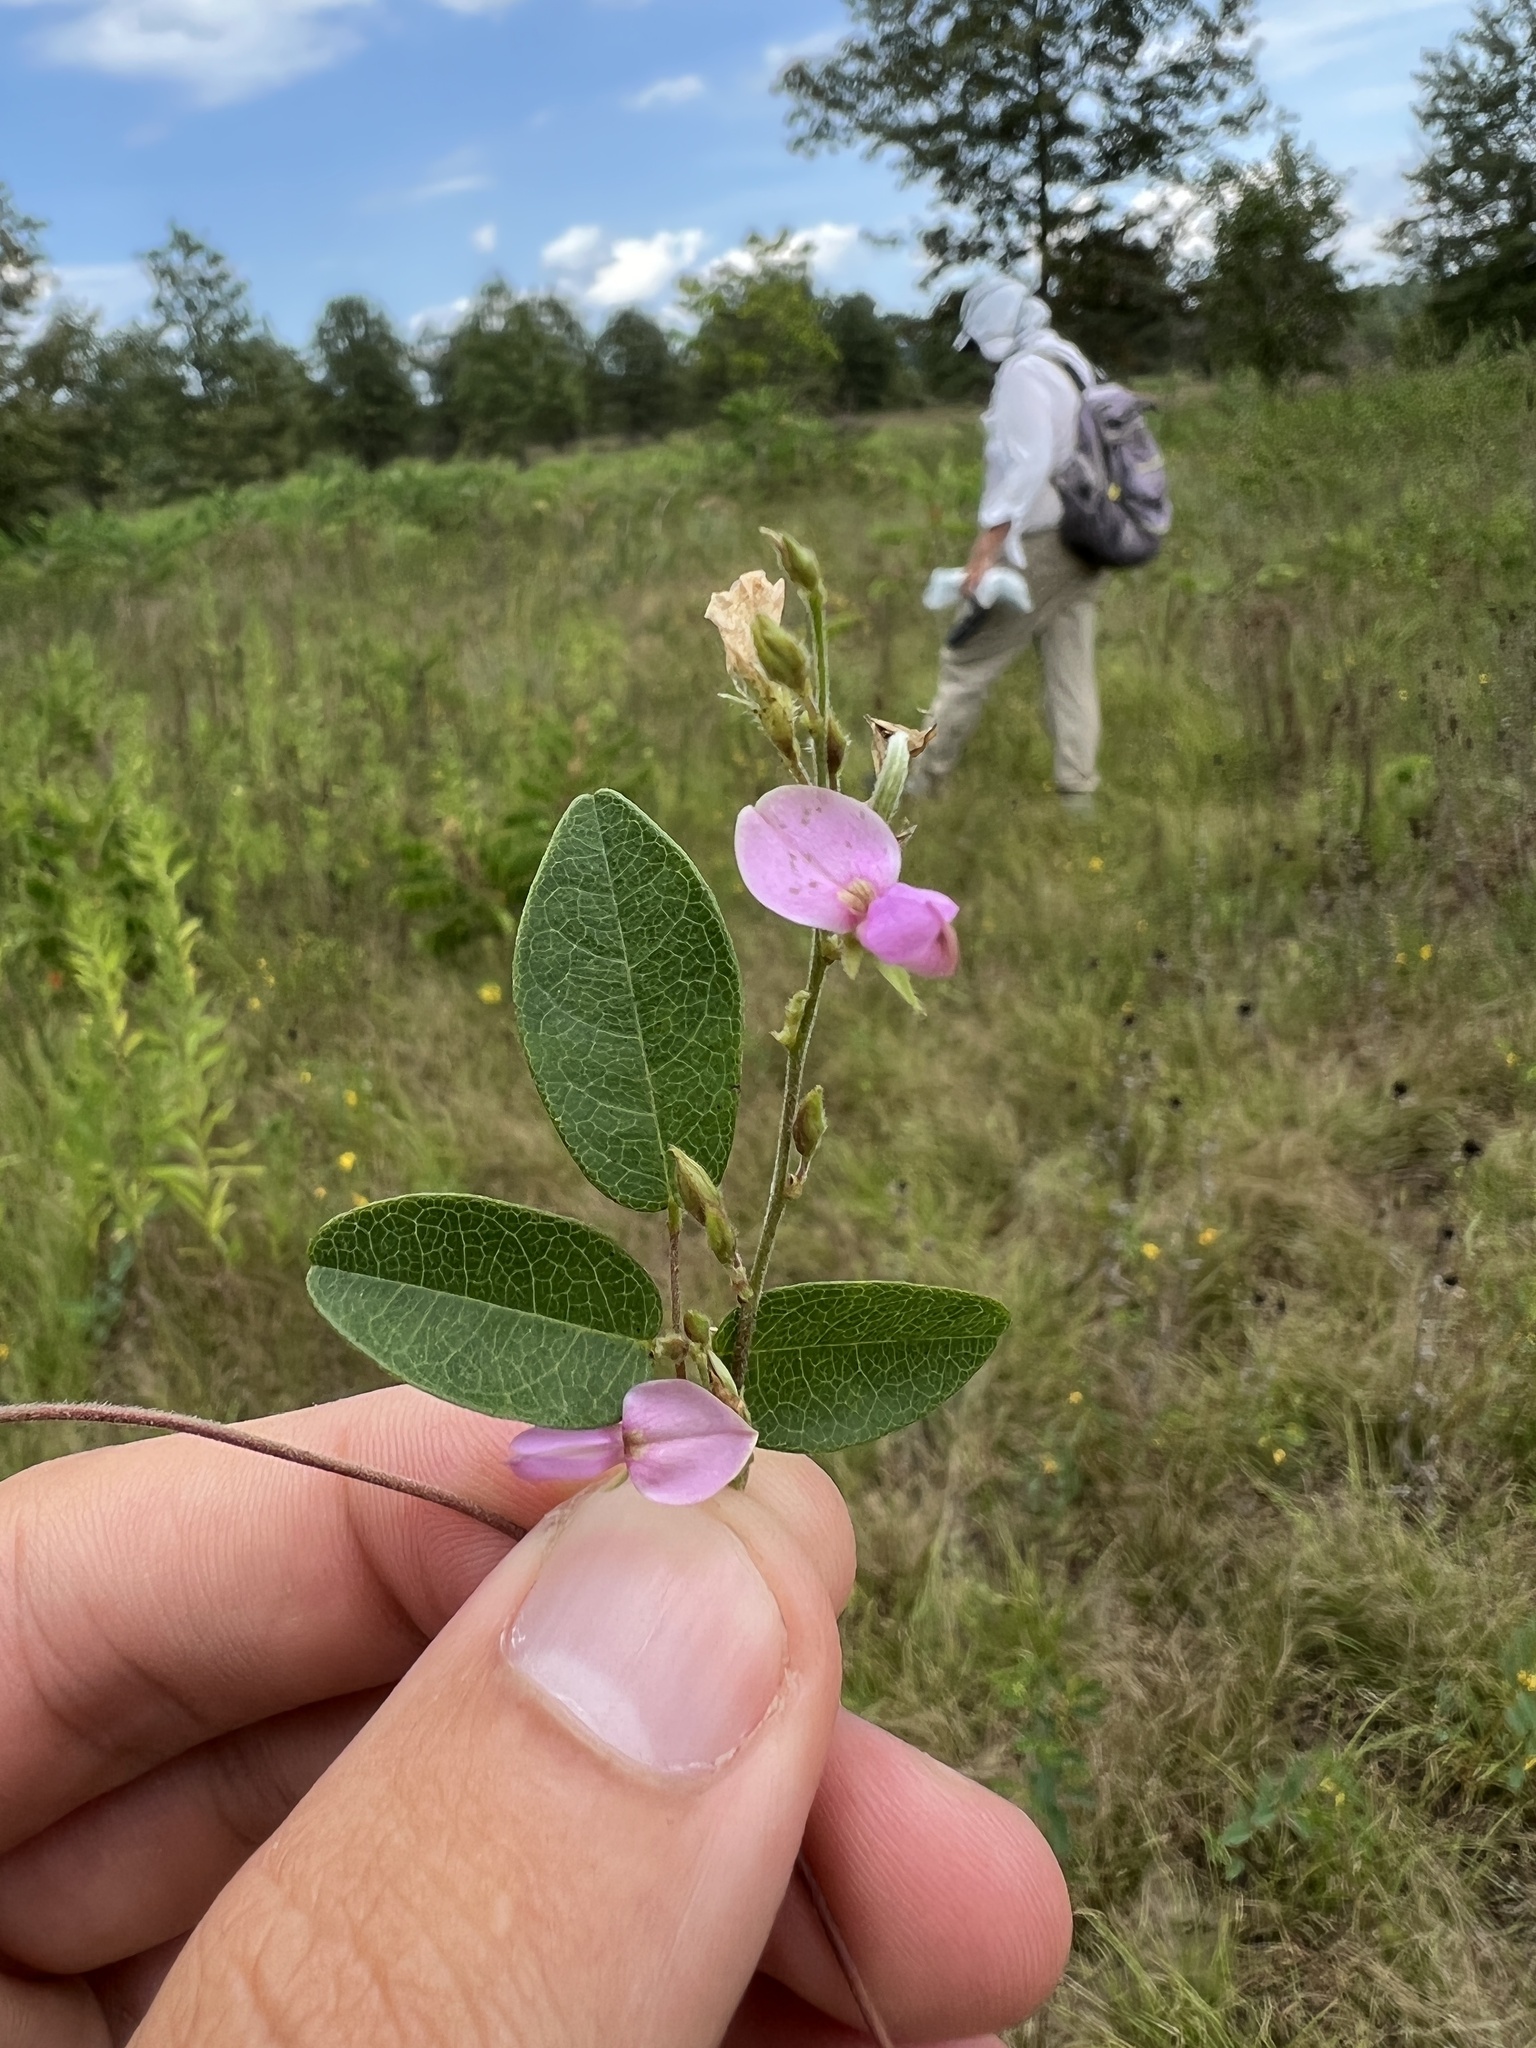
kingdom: Plantae
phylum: Tracheophyta
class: Magnoliopsida
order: Fabales
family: Fabaceae
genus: Galactia
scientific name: Galactia regularis
